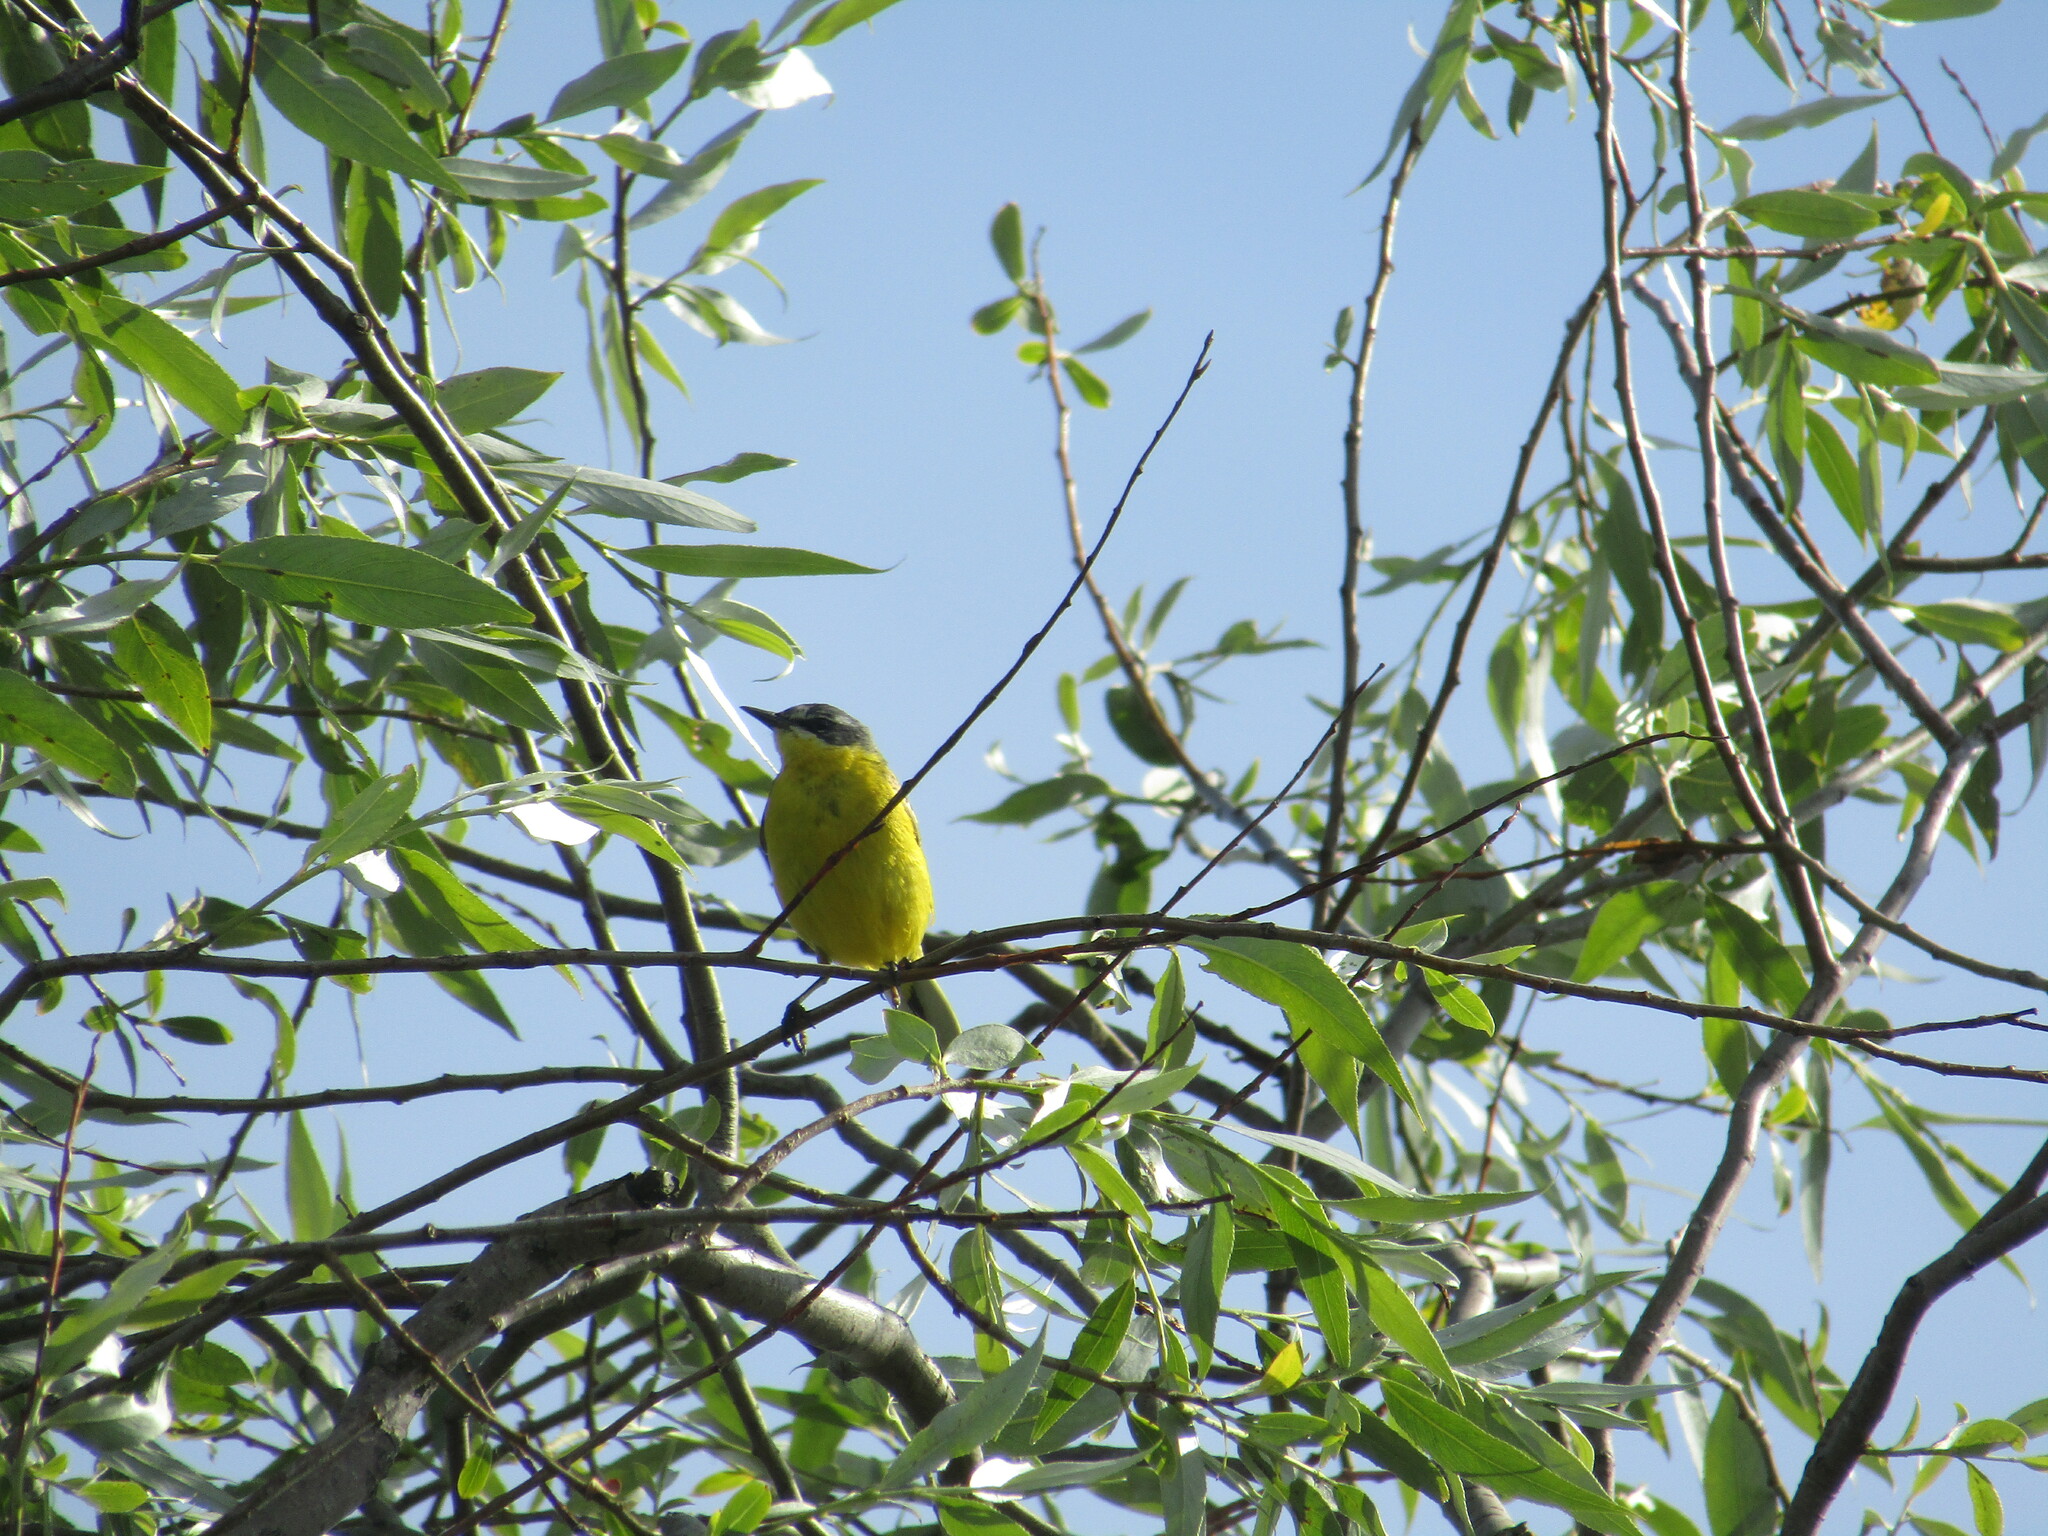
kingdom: Animalia
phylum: Chordata
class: Aves
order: Passeriformes
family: Motacillidae
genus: Motacilla
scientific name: Motacilla flava
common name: Western yellow wagtail
